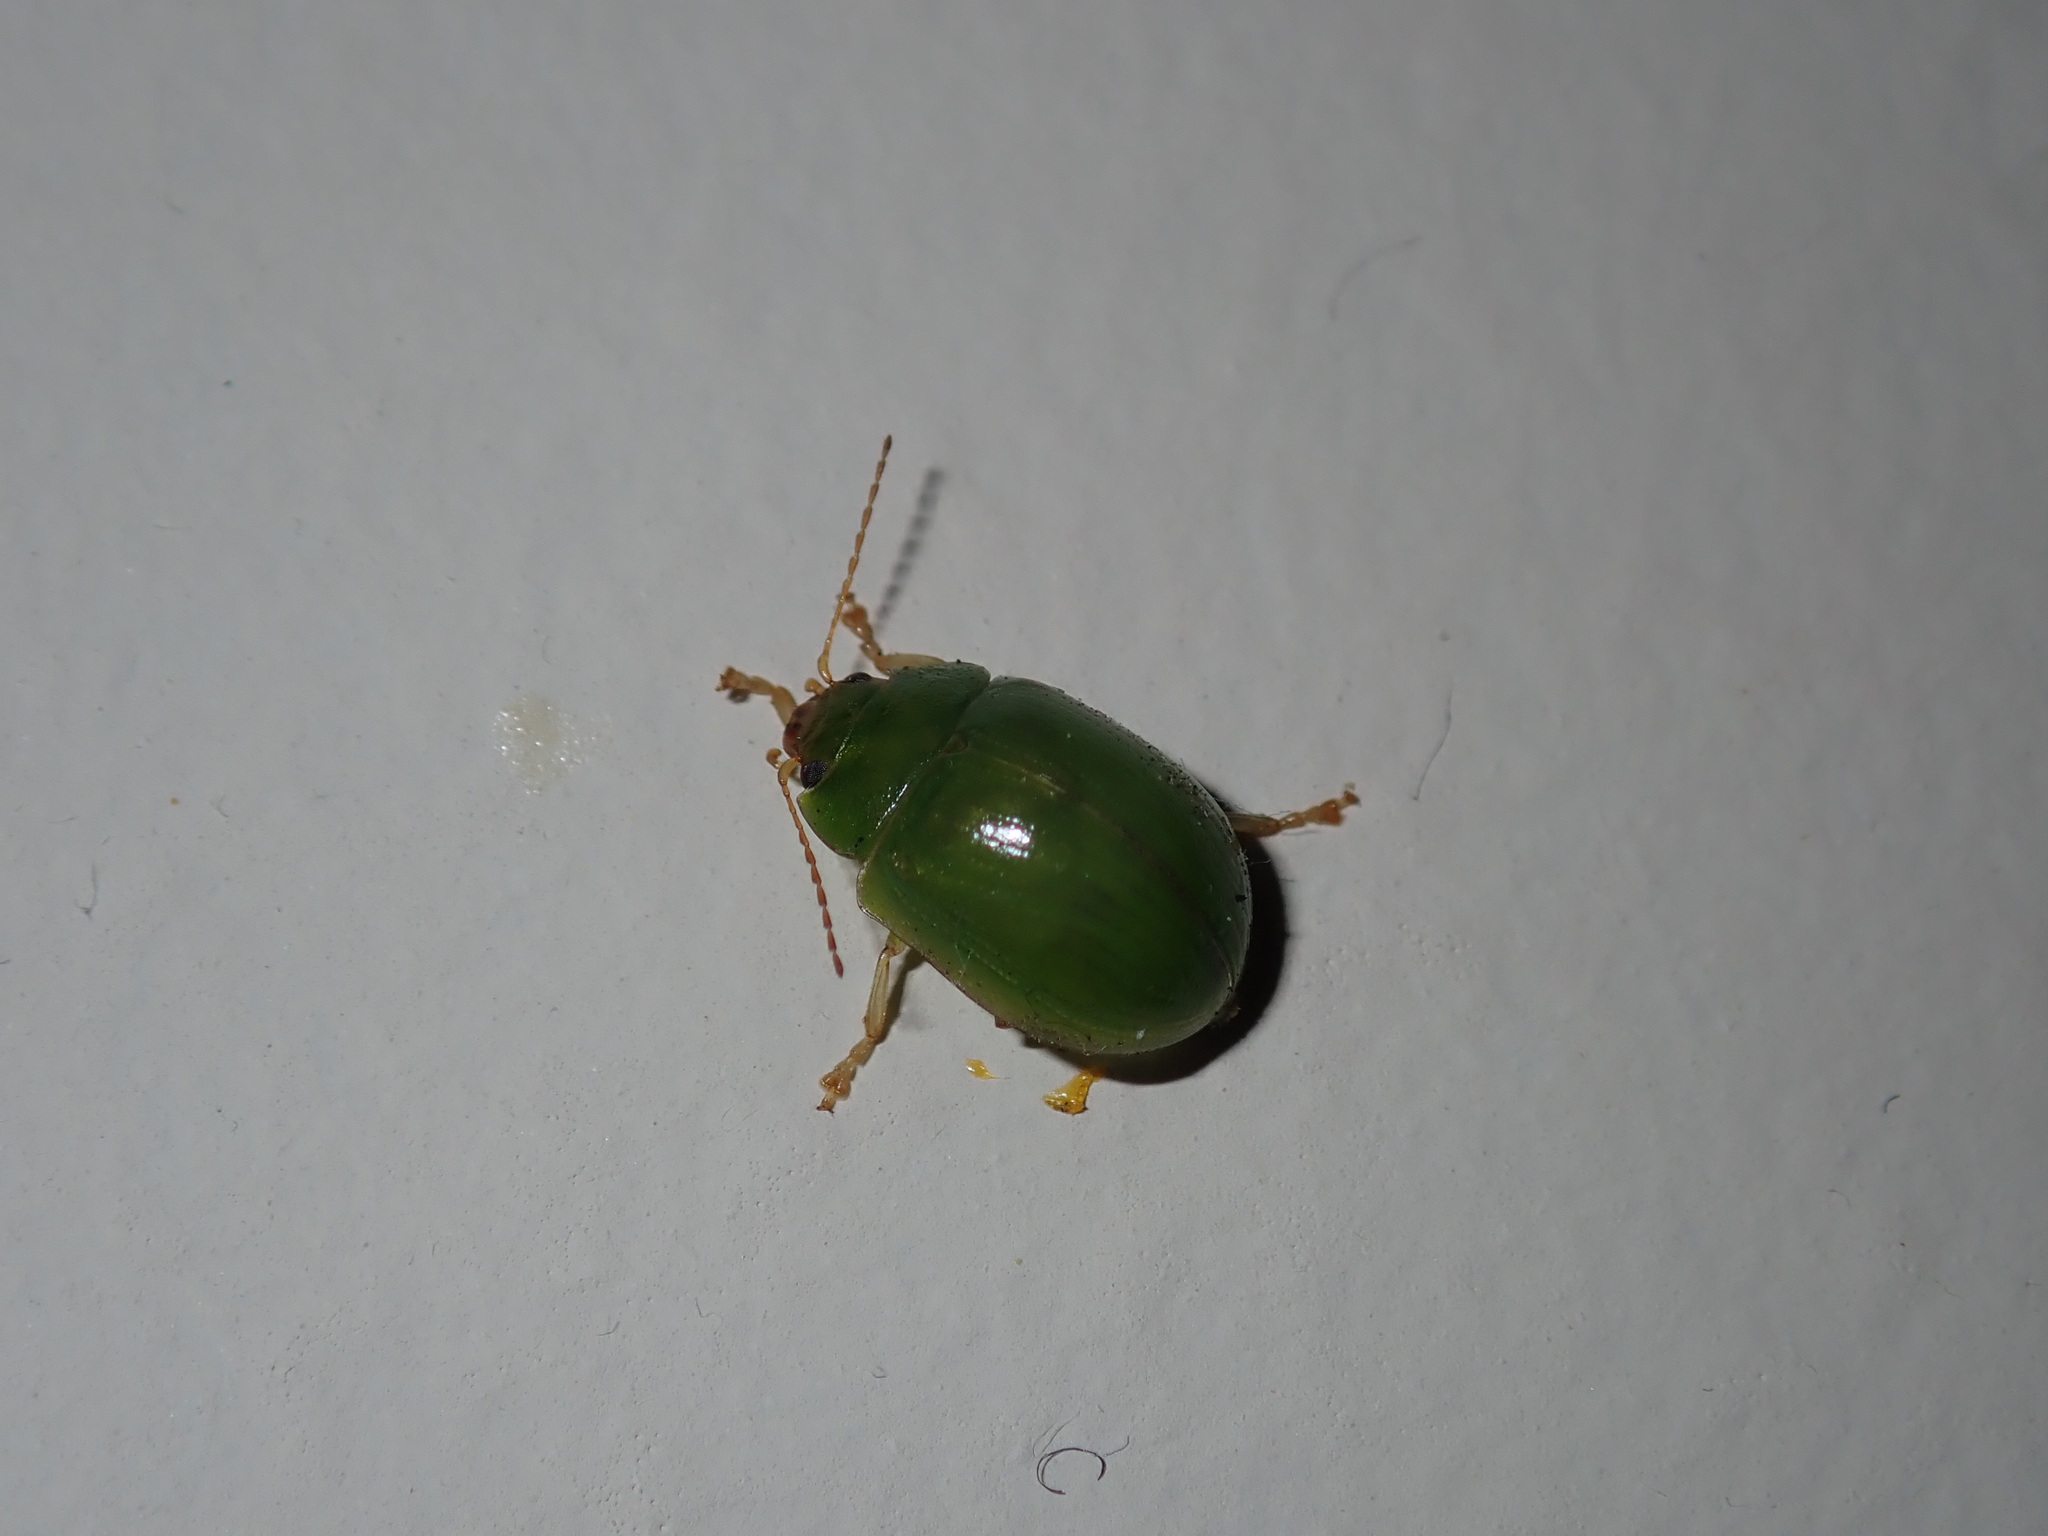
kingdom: Animalia
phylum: Arthropoda
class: Insecta
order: Coleoptera
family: Chrysomelidae
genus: Paropsides
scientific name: Paropsides
